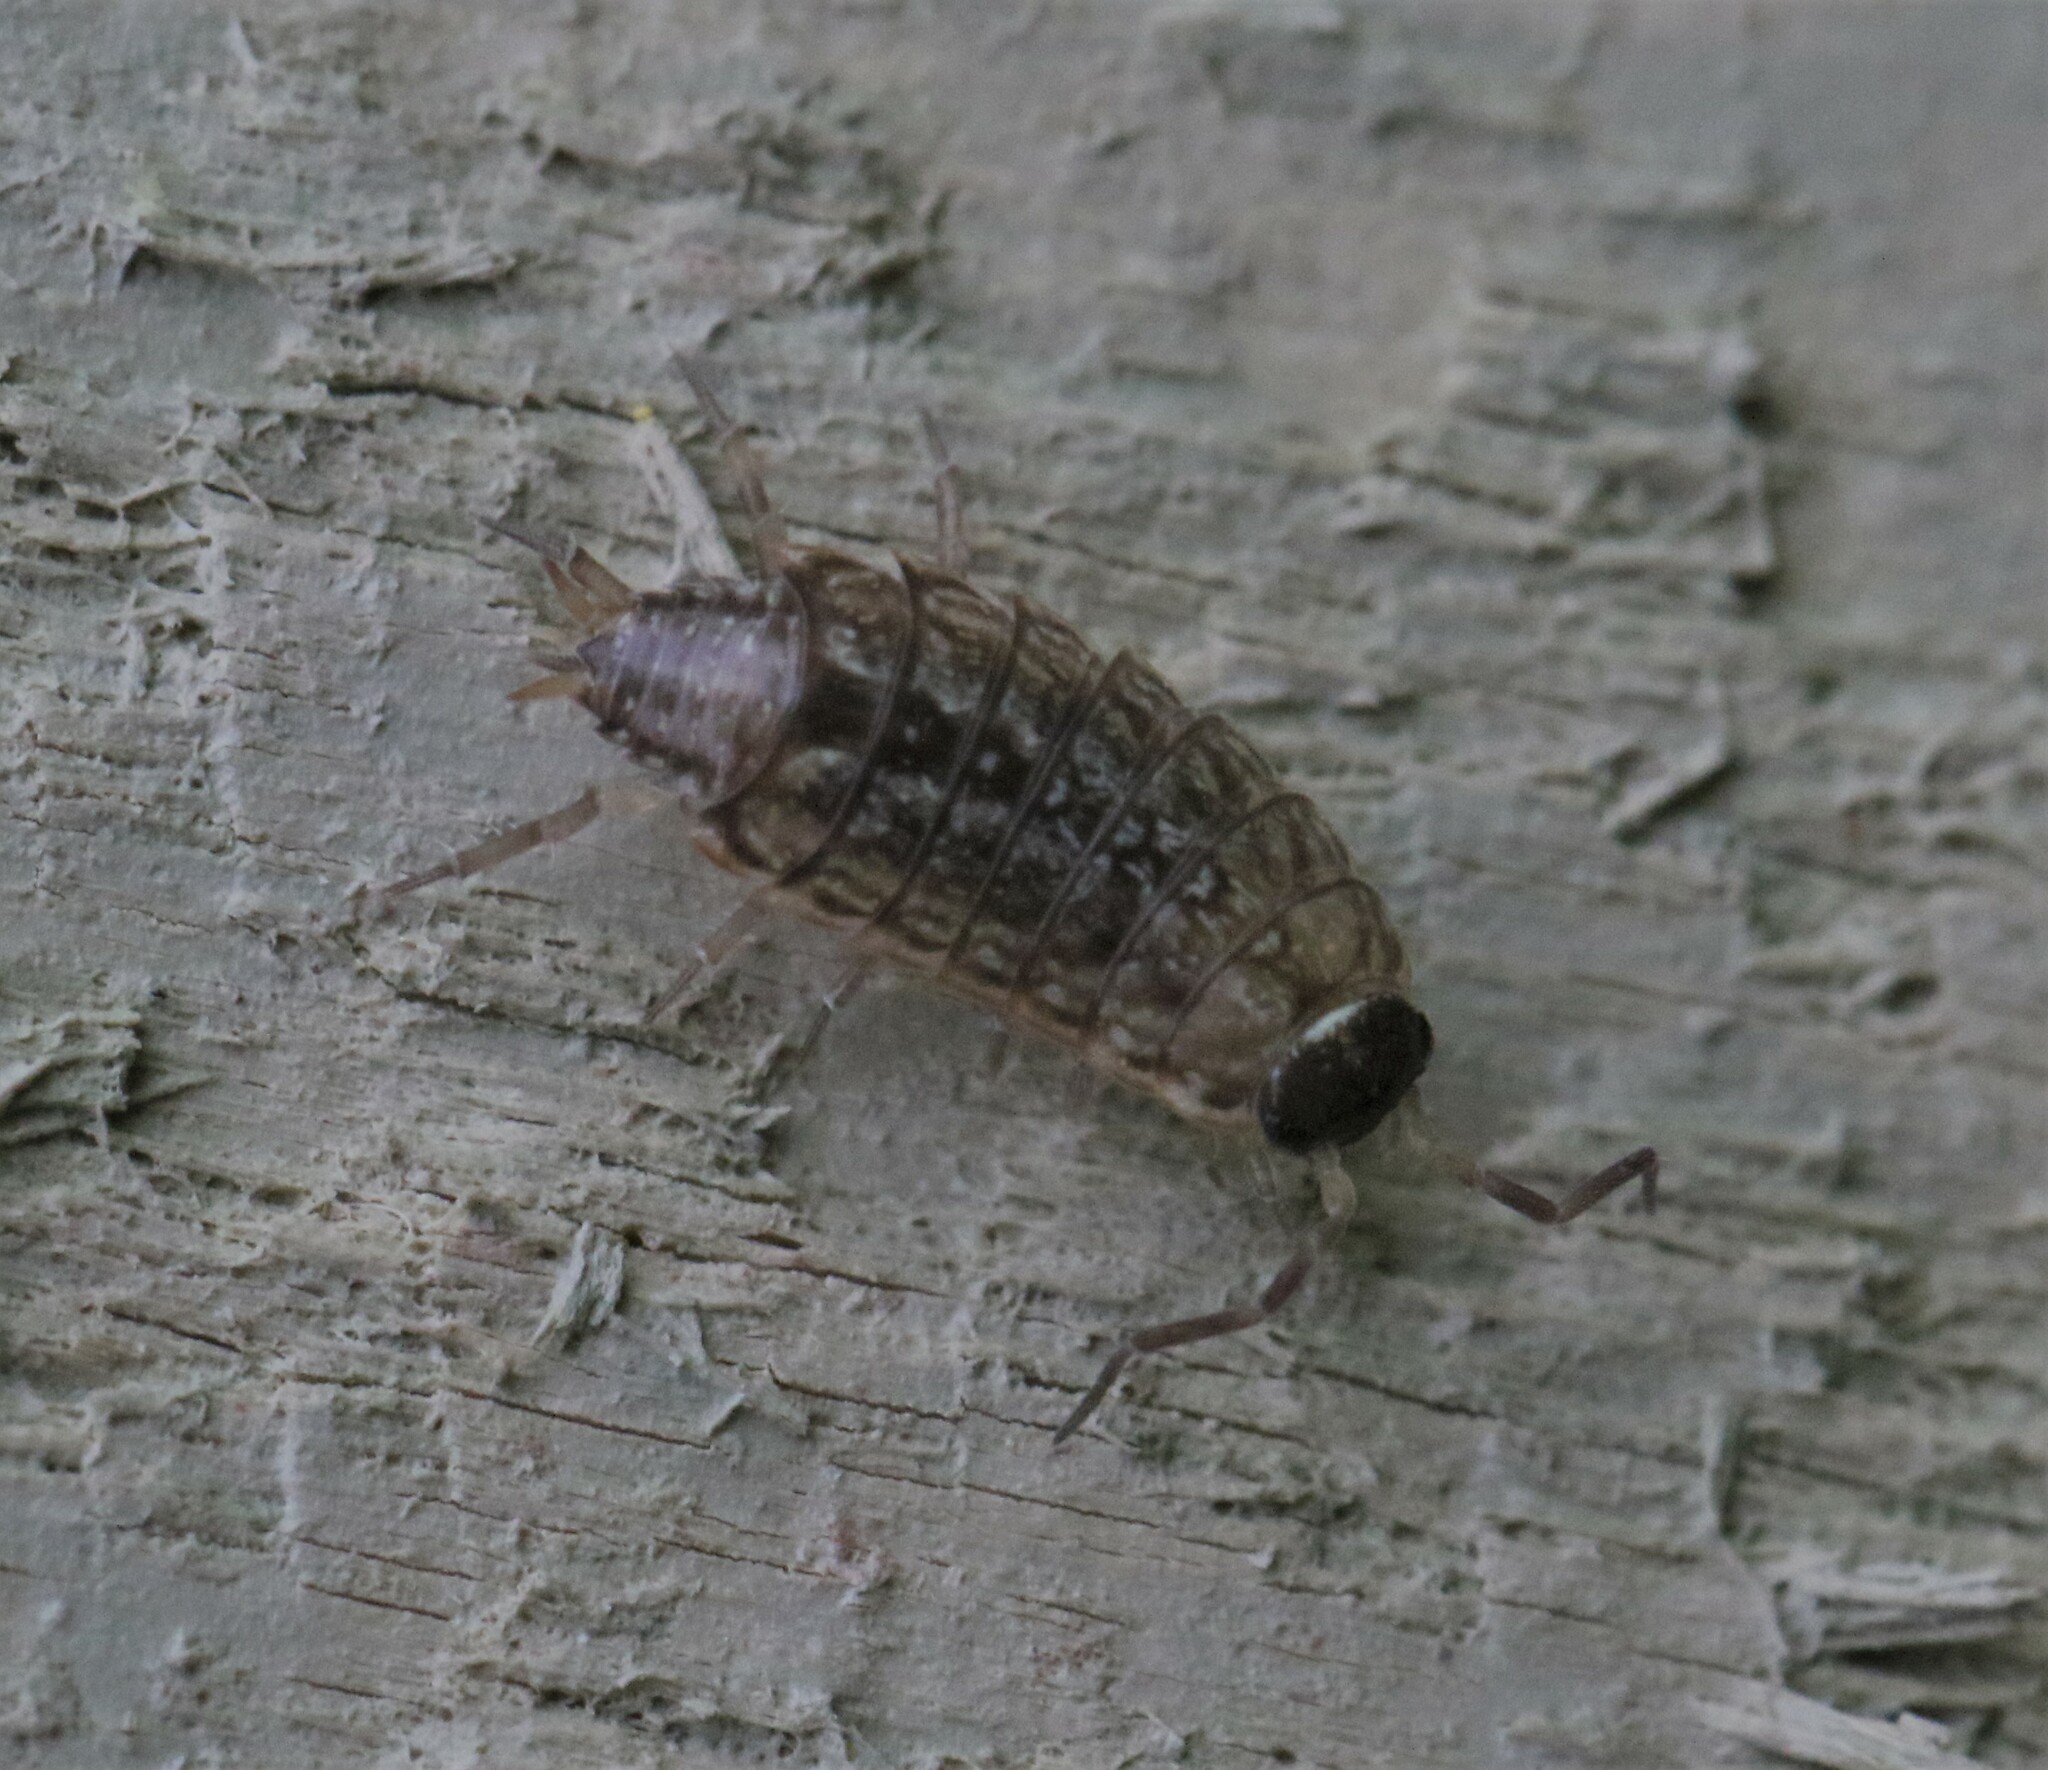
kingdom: Animalia
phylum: Arthropoda
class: Malacostraca
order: Isopoda
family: Philosciidae
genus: Philoscia
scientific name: Philoscia muscorum
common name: Common striped woodlouse
